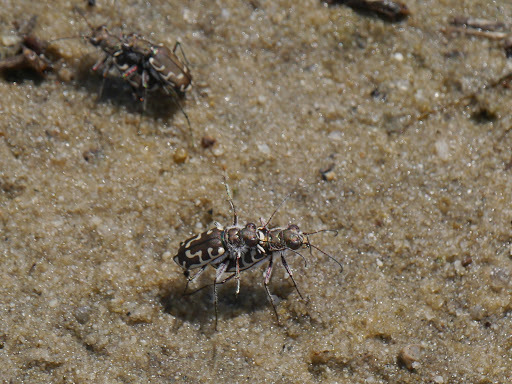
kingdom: Animalia
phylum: Arthropoda
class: Insecta
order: Coleoptera
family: Carabidae
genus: Cicindela
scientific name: Cicindela hirticollis
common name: Hairy-necked tiger beetle
